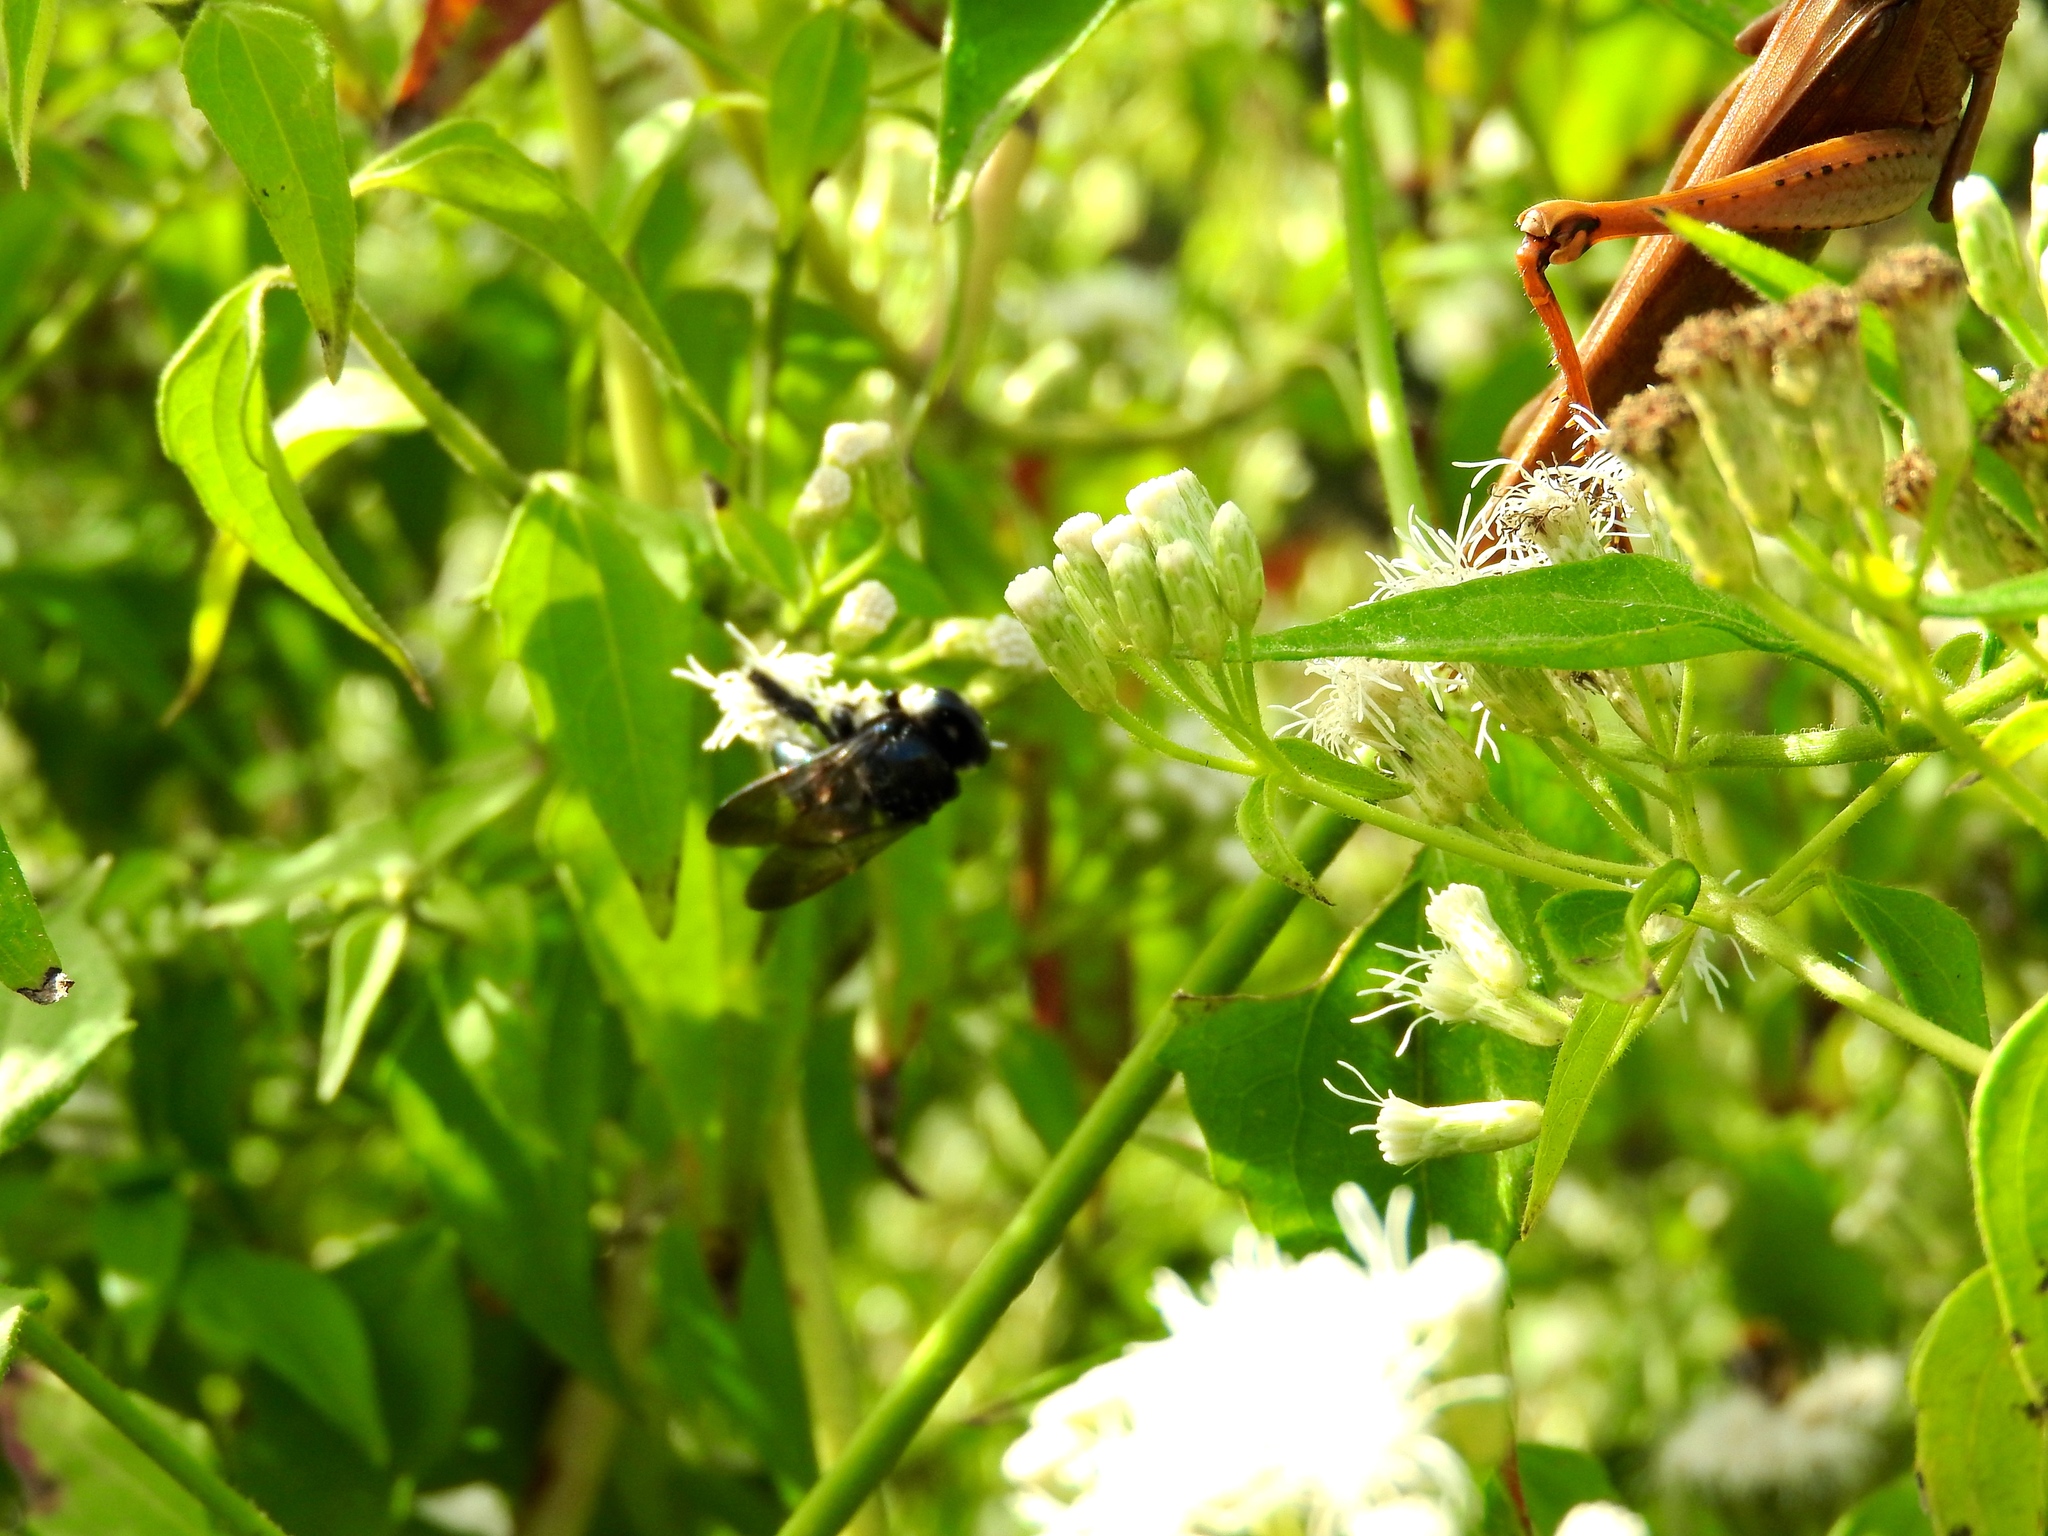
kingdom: Animalia
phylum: Arthropoda
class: Insecta
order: Hymenoptera
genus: Schonnherria
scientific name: Schonnherria
